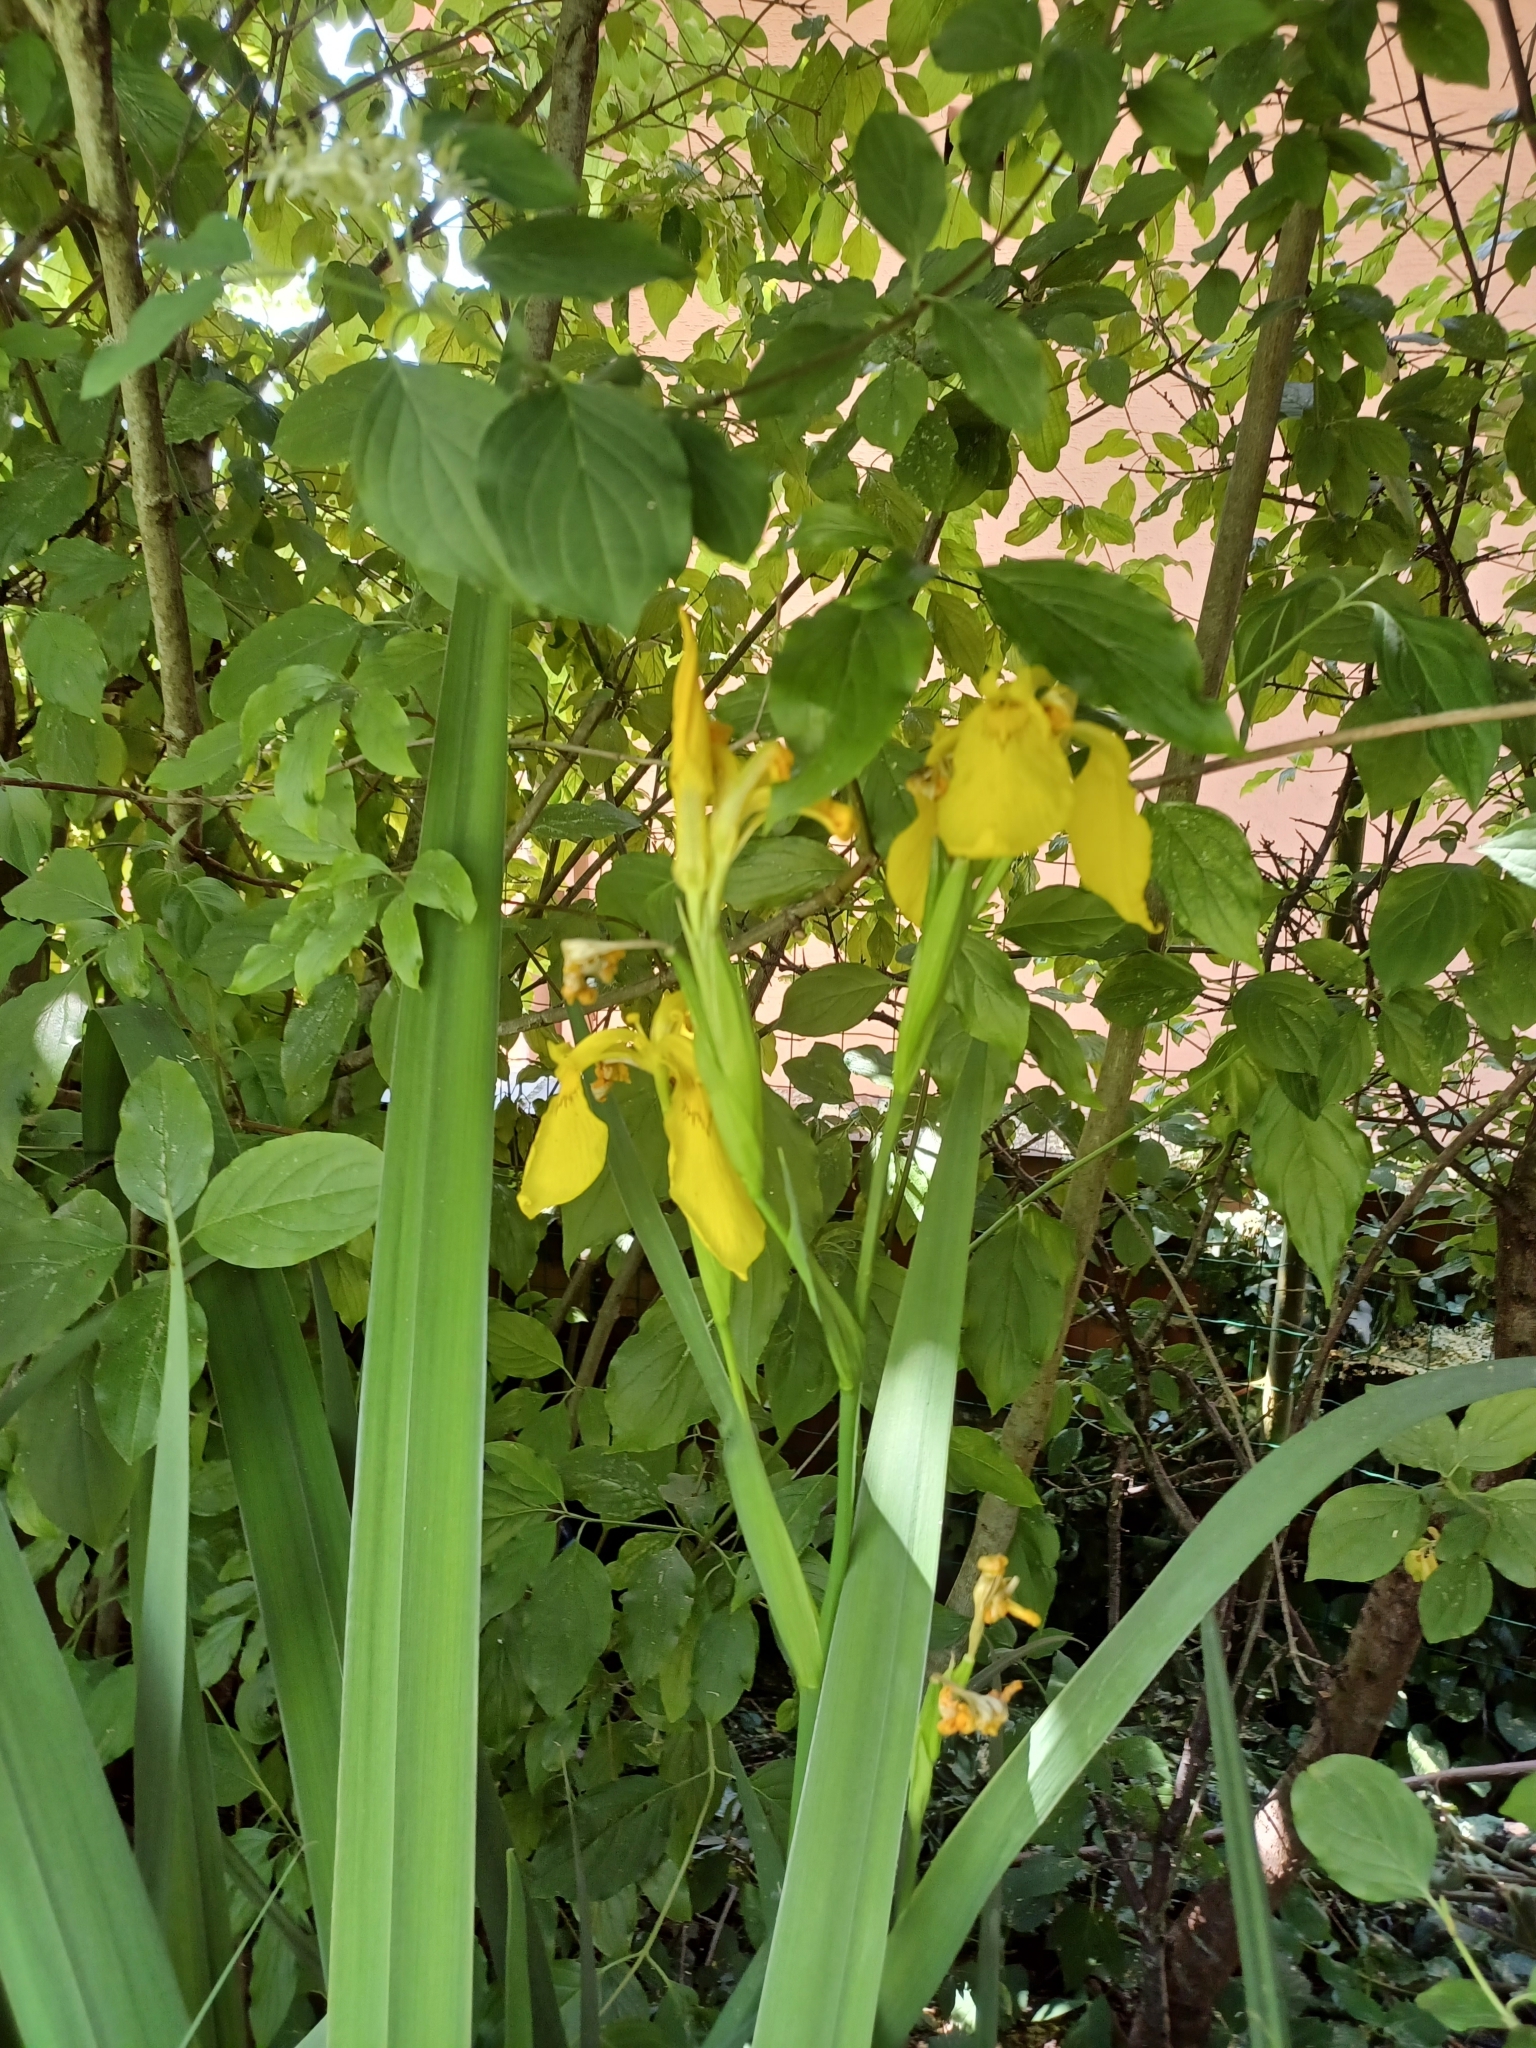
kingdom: Plantae
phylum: Tracheophyta
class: Liliopsida
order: Asparagales
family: Iridaceae
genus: Iris
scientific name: Iris pseudacorus
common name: Yellow flag
